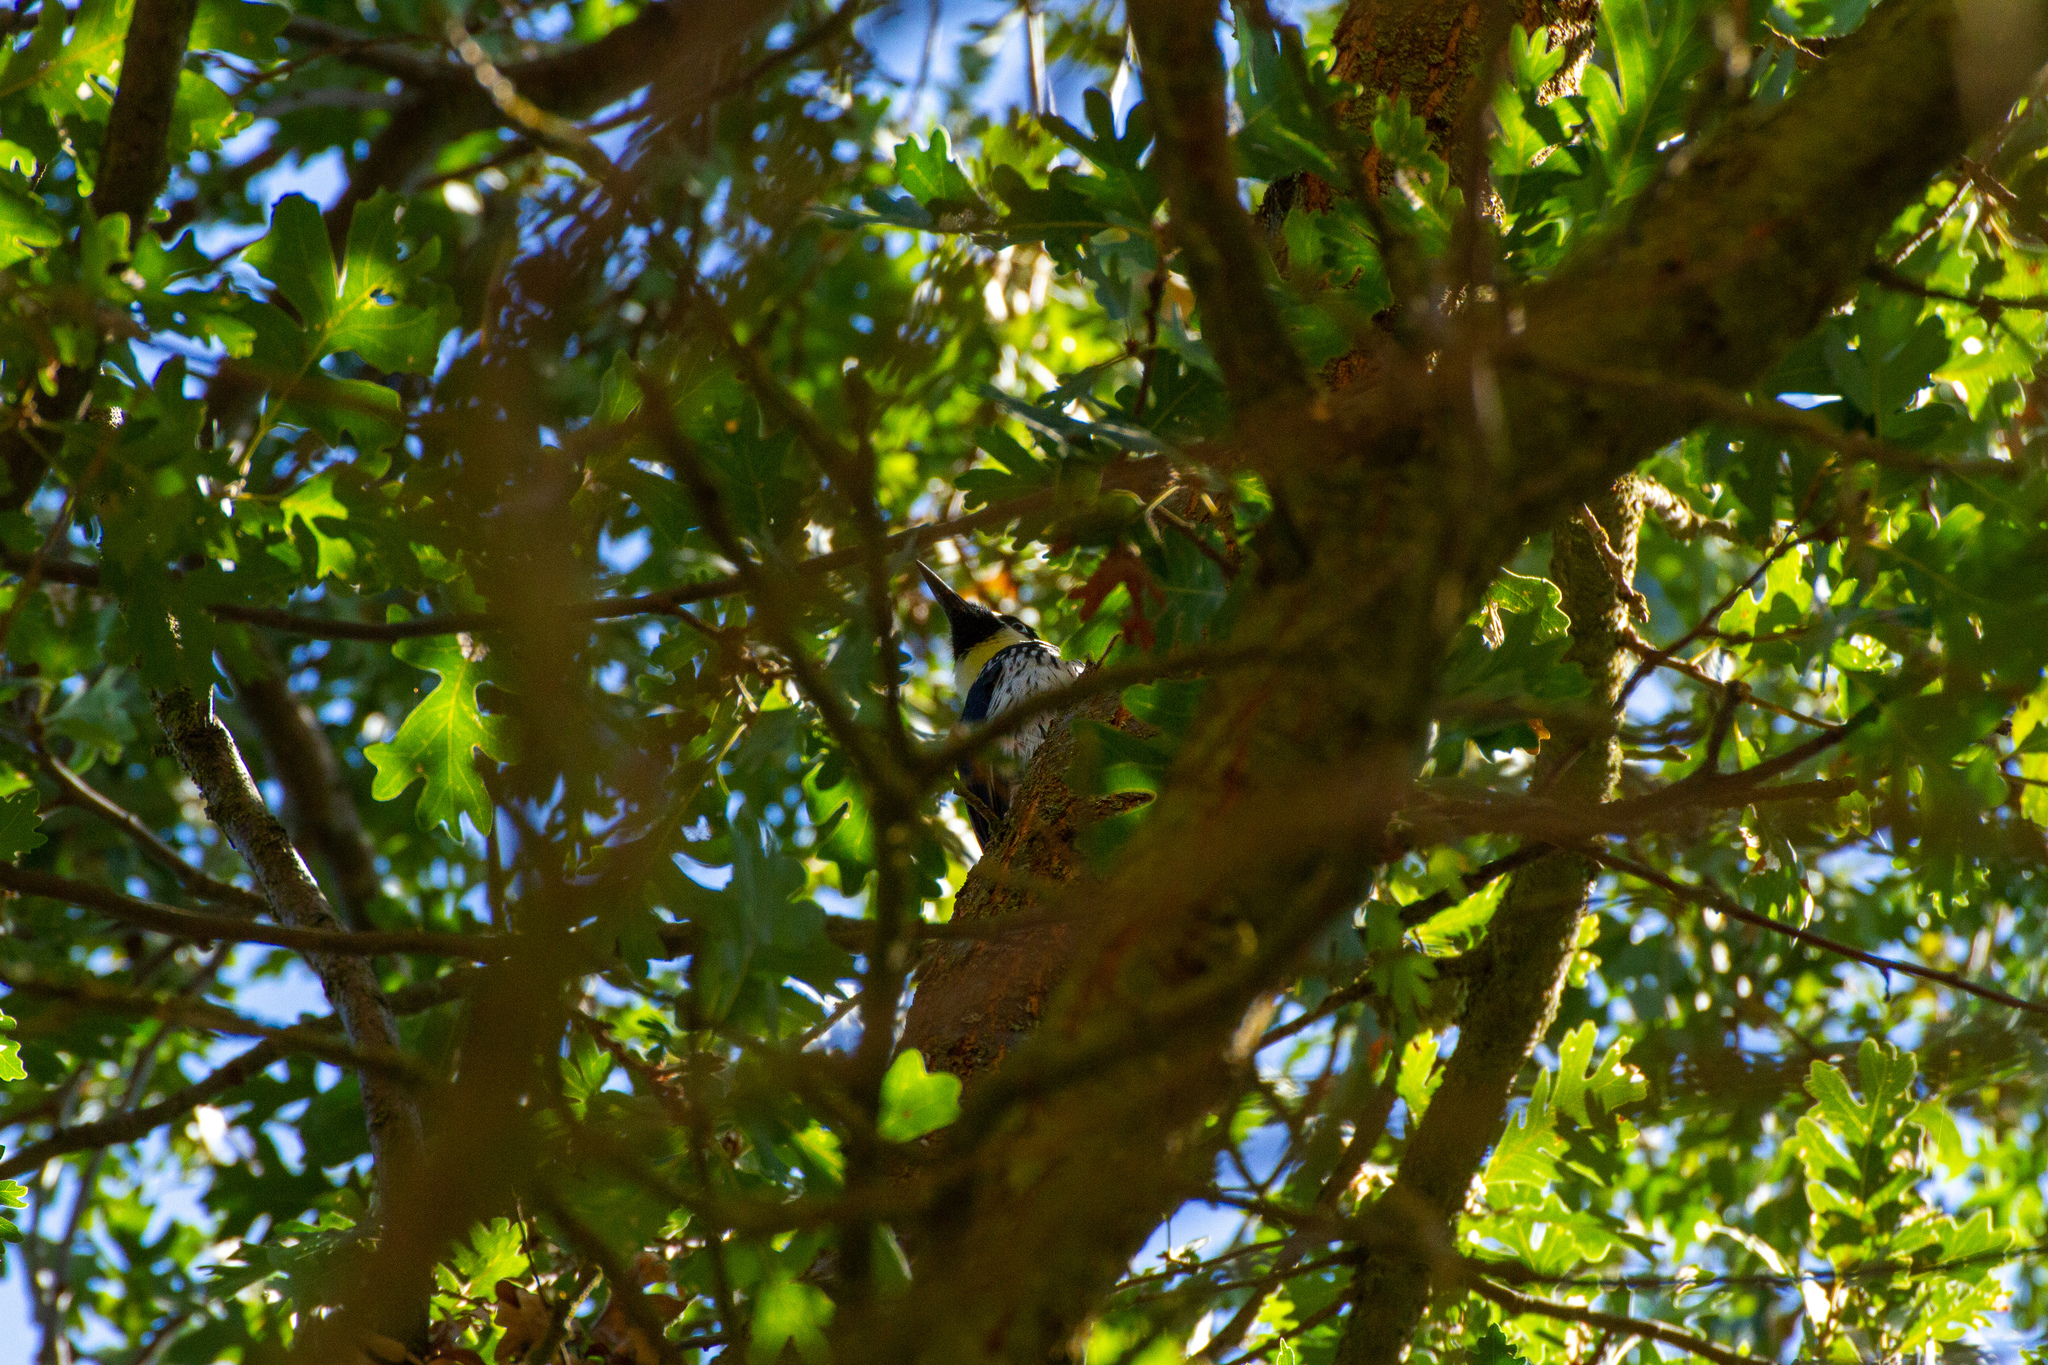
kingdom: Animalia
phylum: Chordata
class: Aves
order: Piciformes
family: Picidae
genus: Melanerpes
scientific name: Melanerpes formicivorus
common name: Acorn woodpecker
